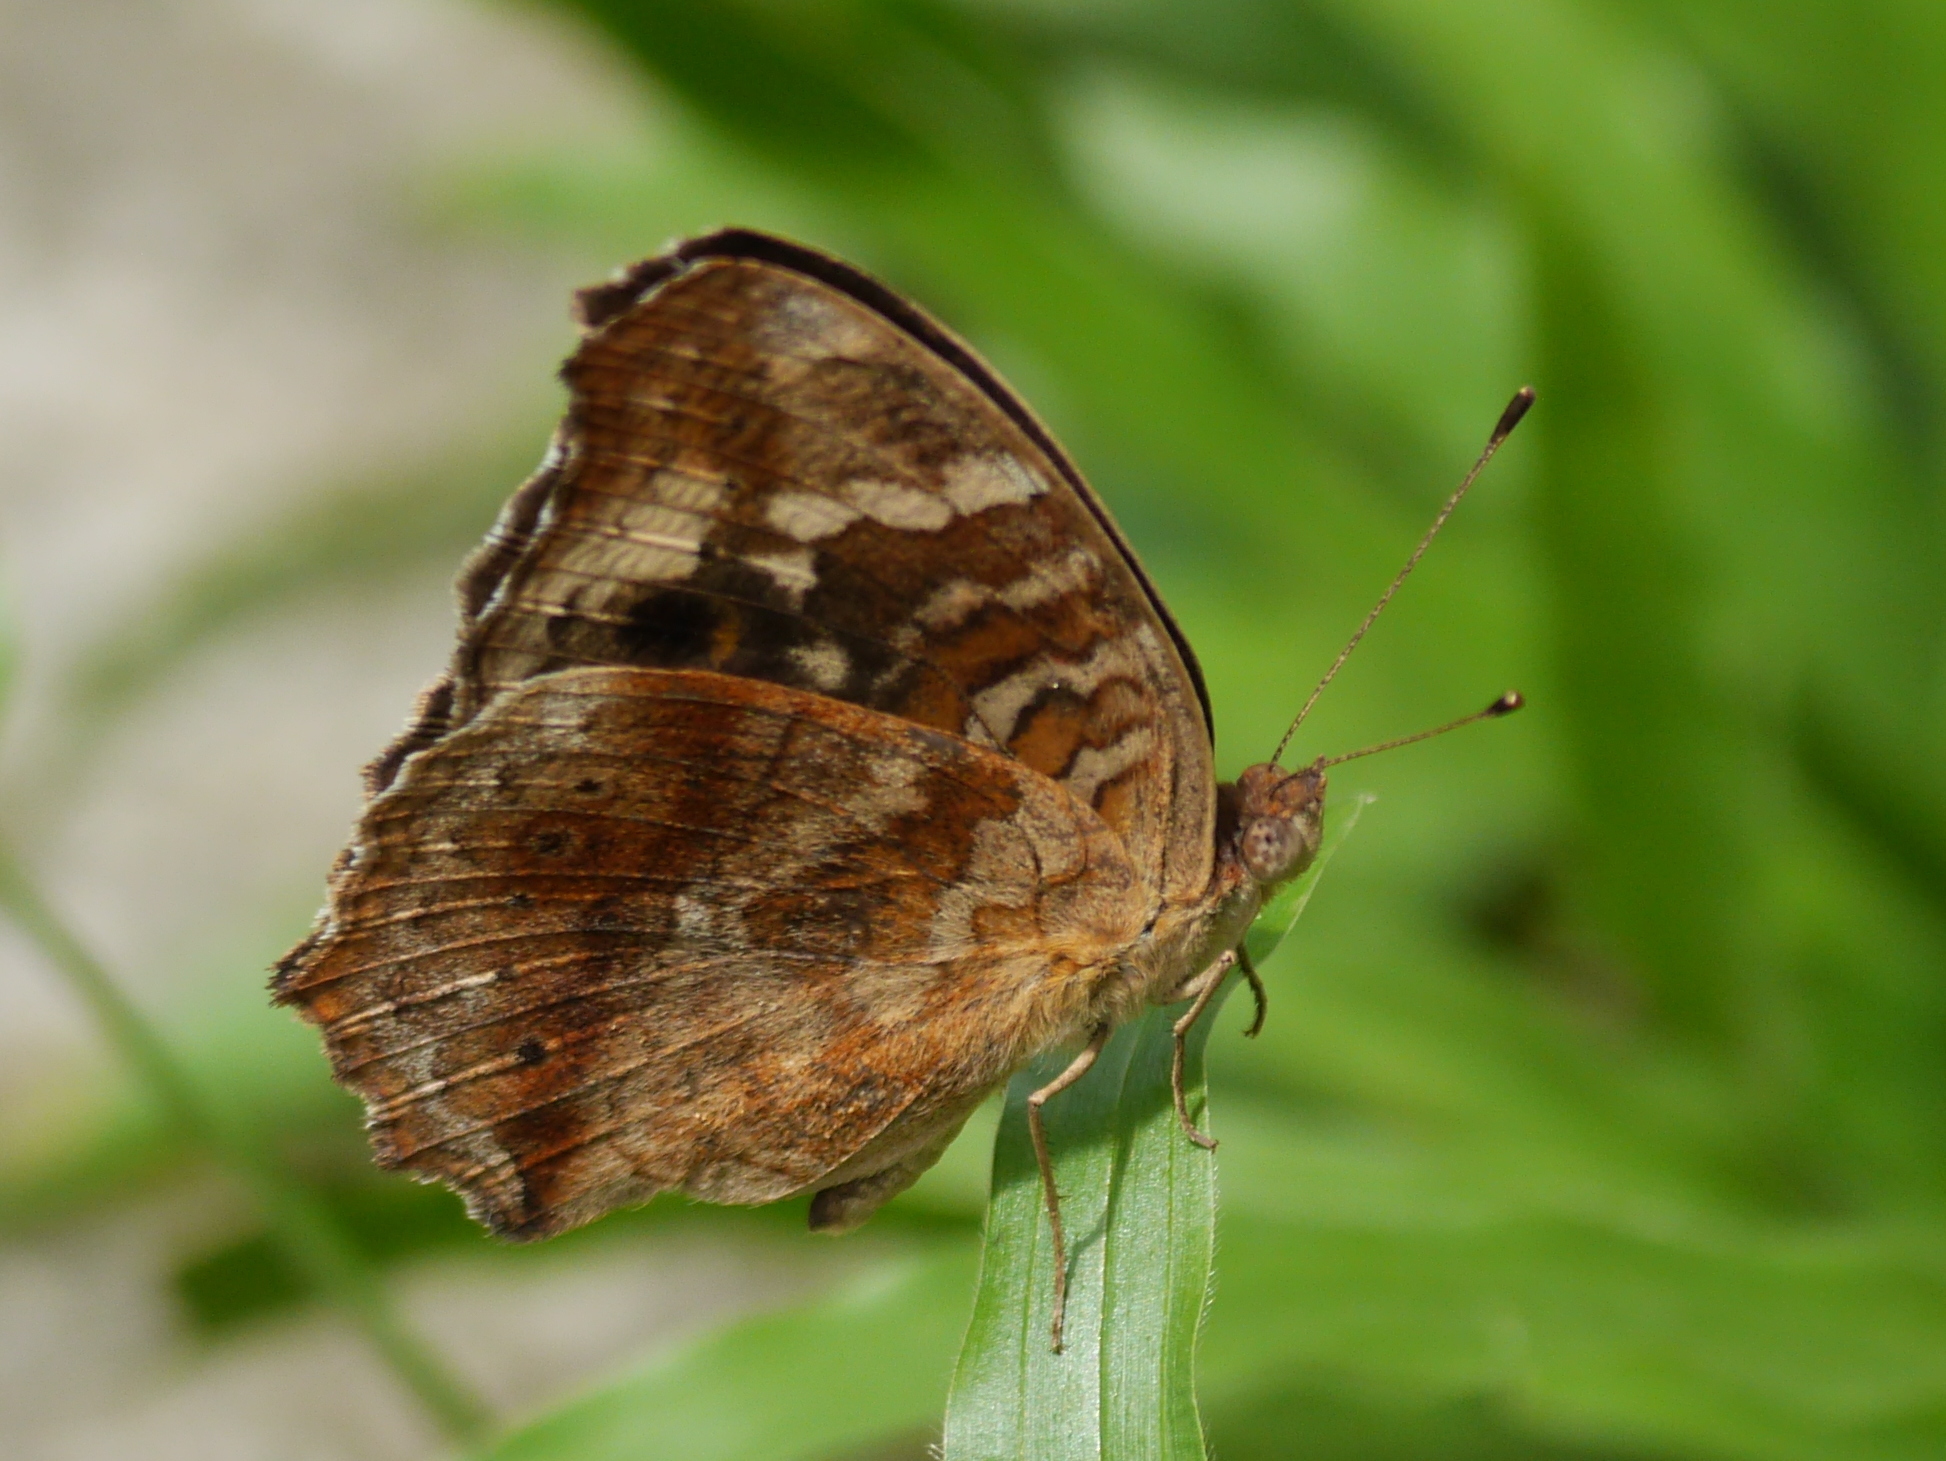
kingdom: Animalia
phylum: Arthropoda
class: Insecta
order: Lepidoptera
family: Nymphalidae
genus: Junonia
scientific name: Junonia erigone
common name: Northern argus
